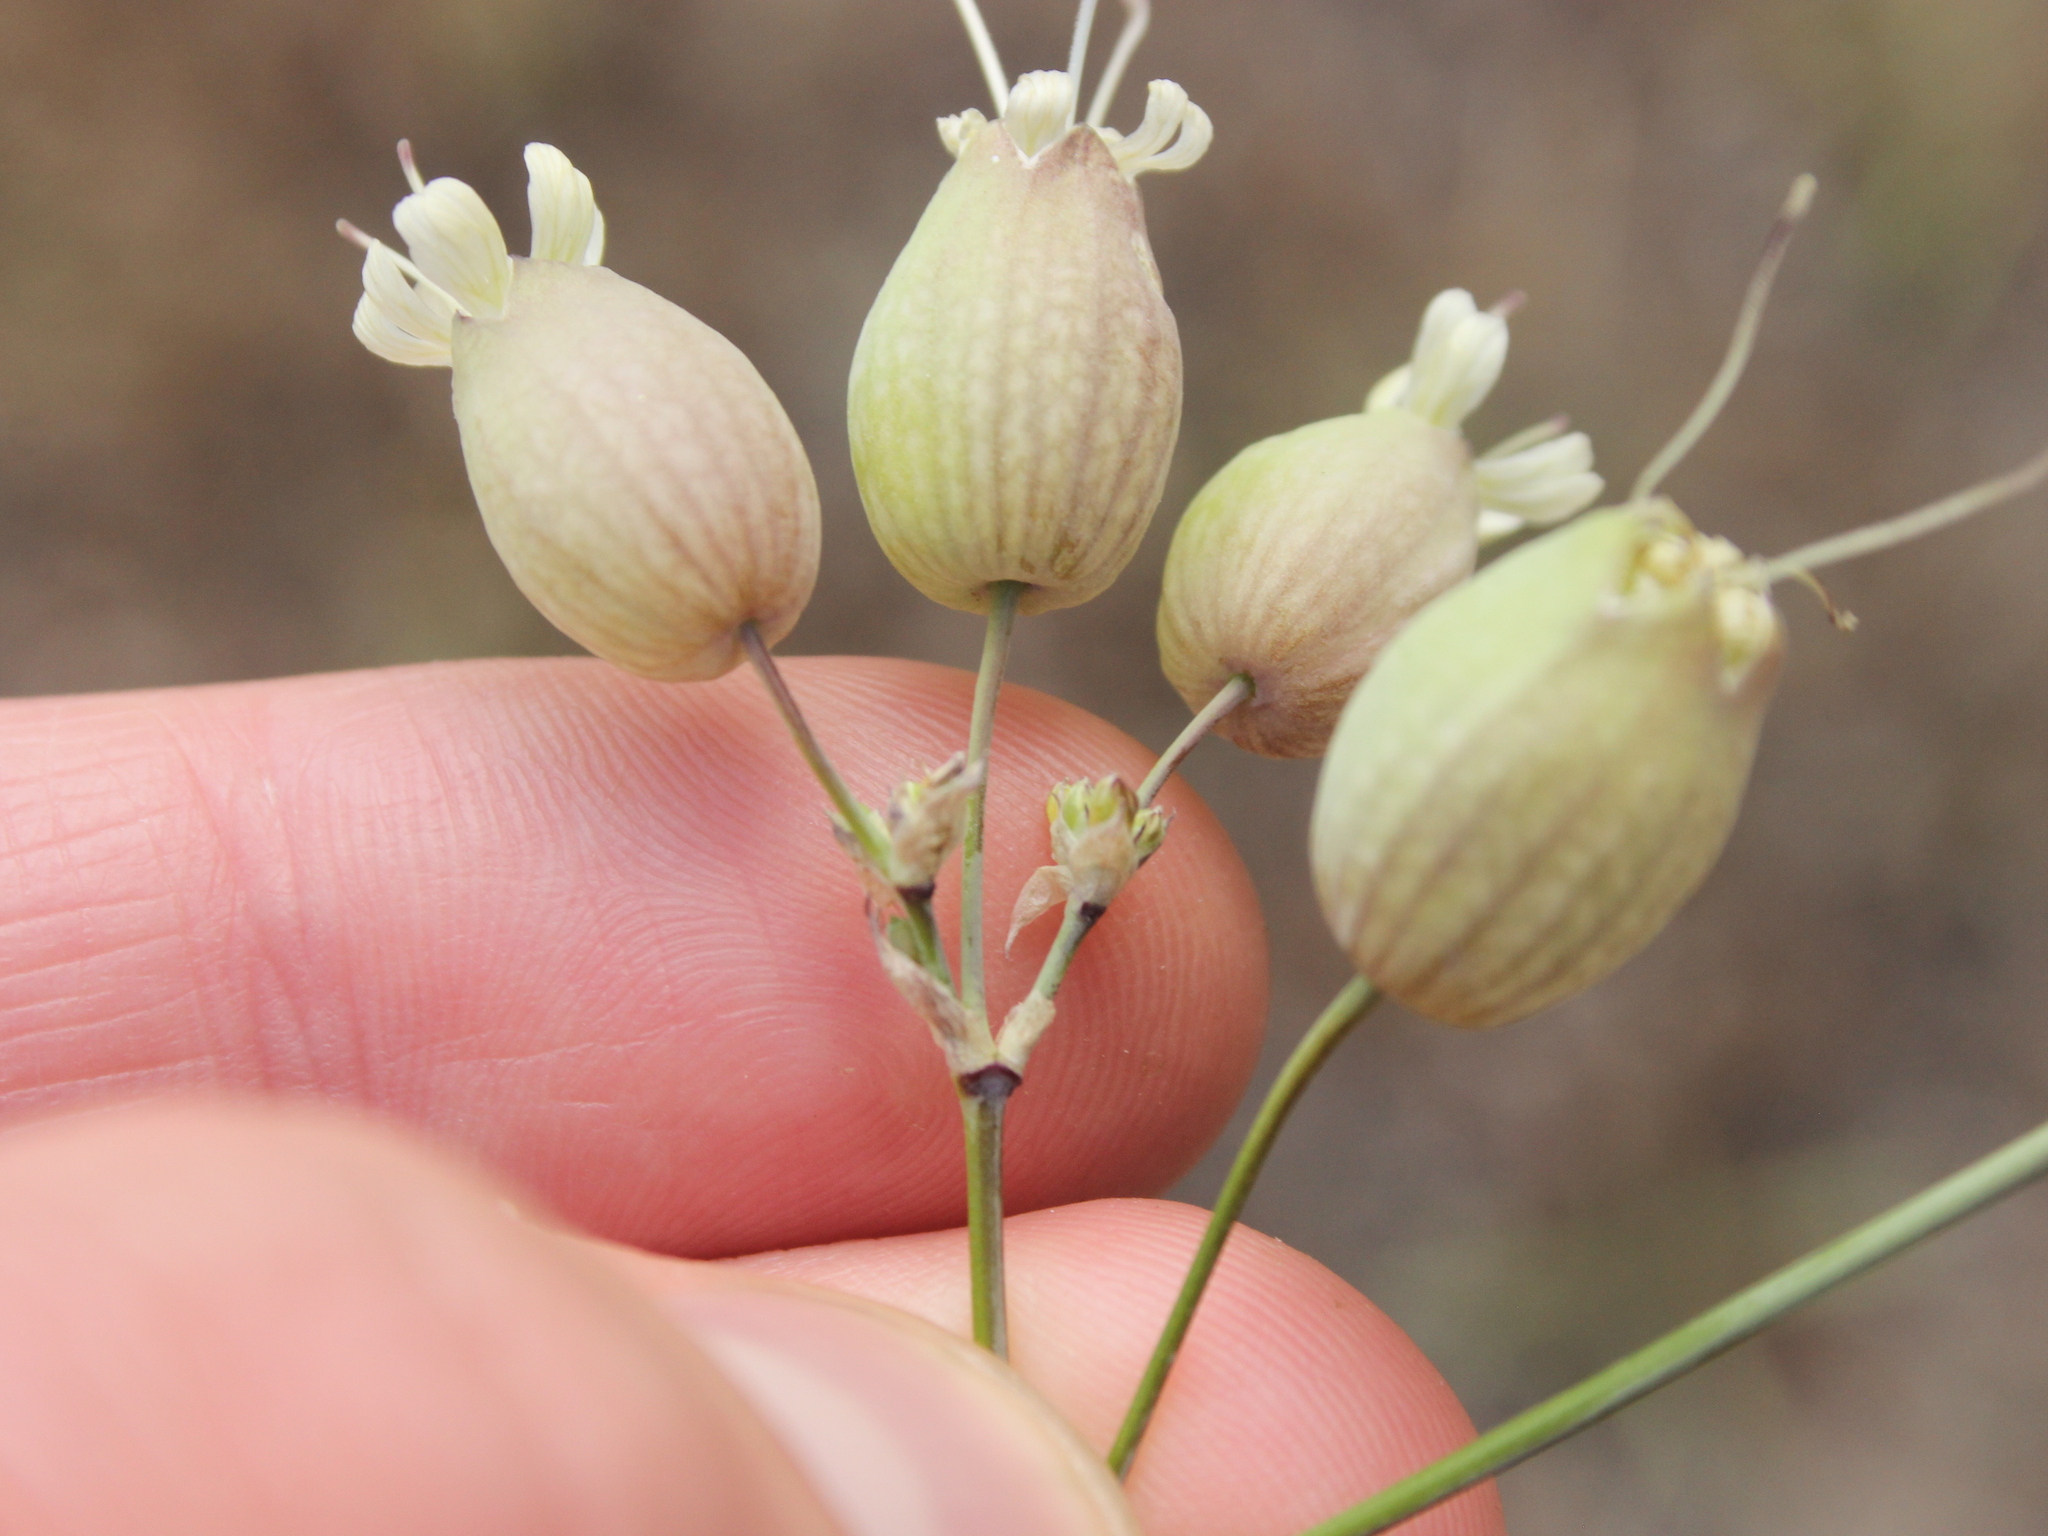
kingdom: Plantae
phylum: Tracheophyta
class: Magnoliopsida
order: Caryophyllales
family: Caryophyllaceae
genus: Silene
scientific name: Silene vulgaris
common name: Bladder campion
